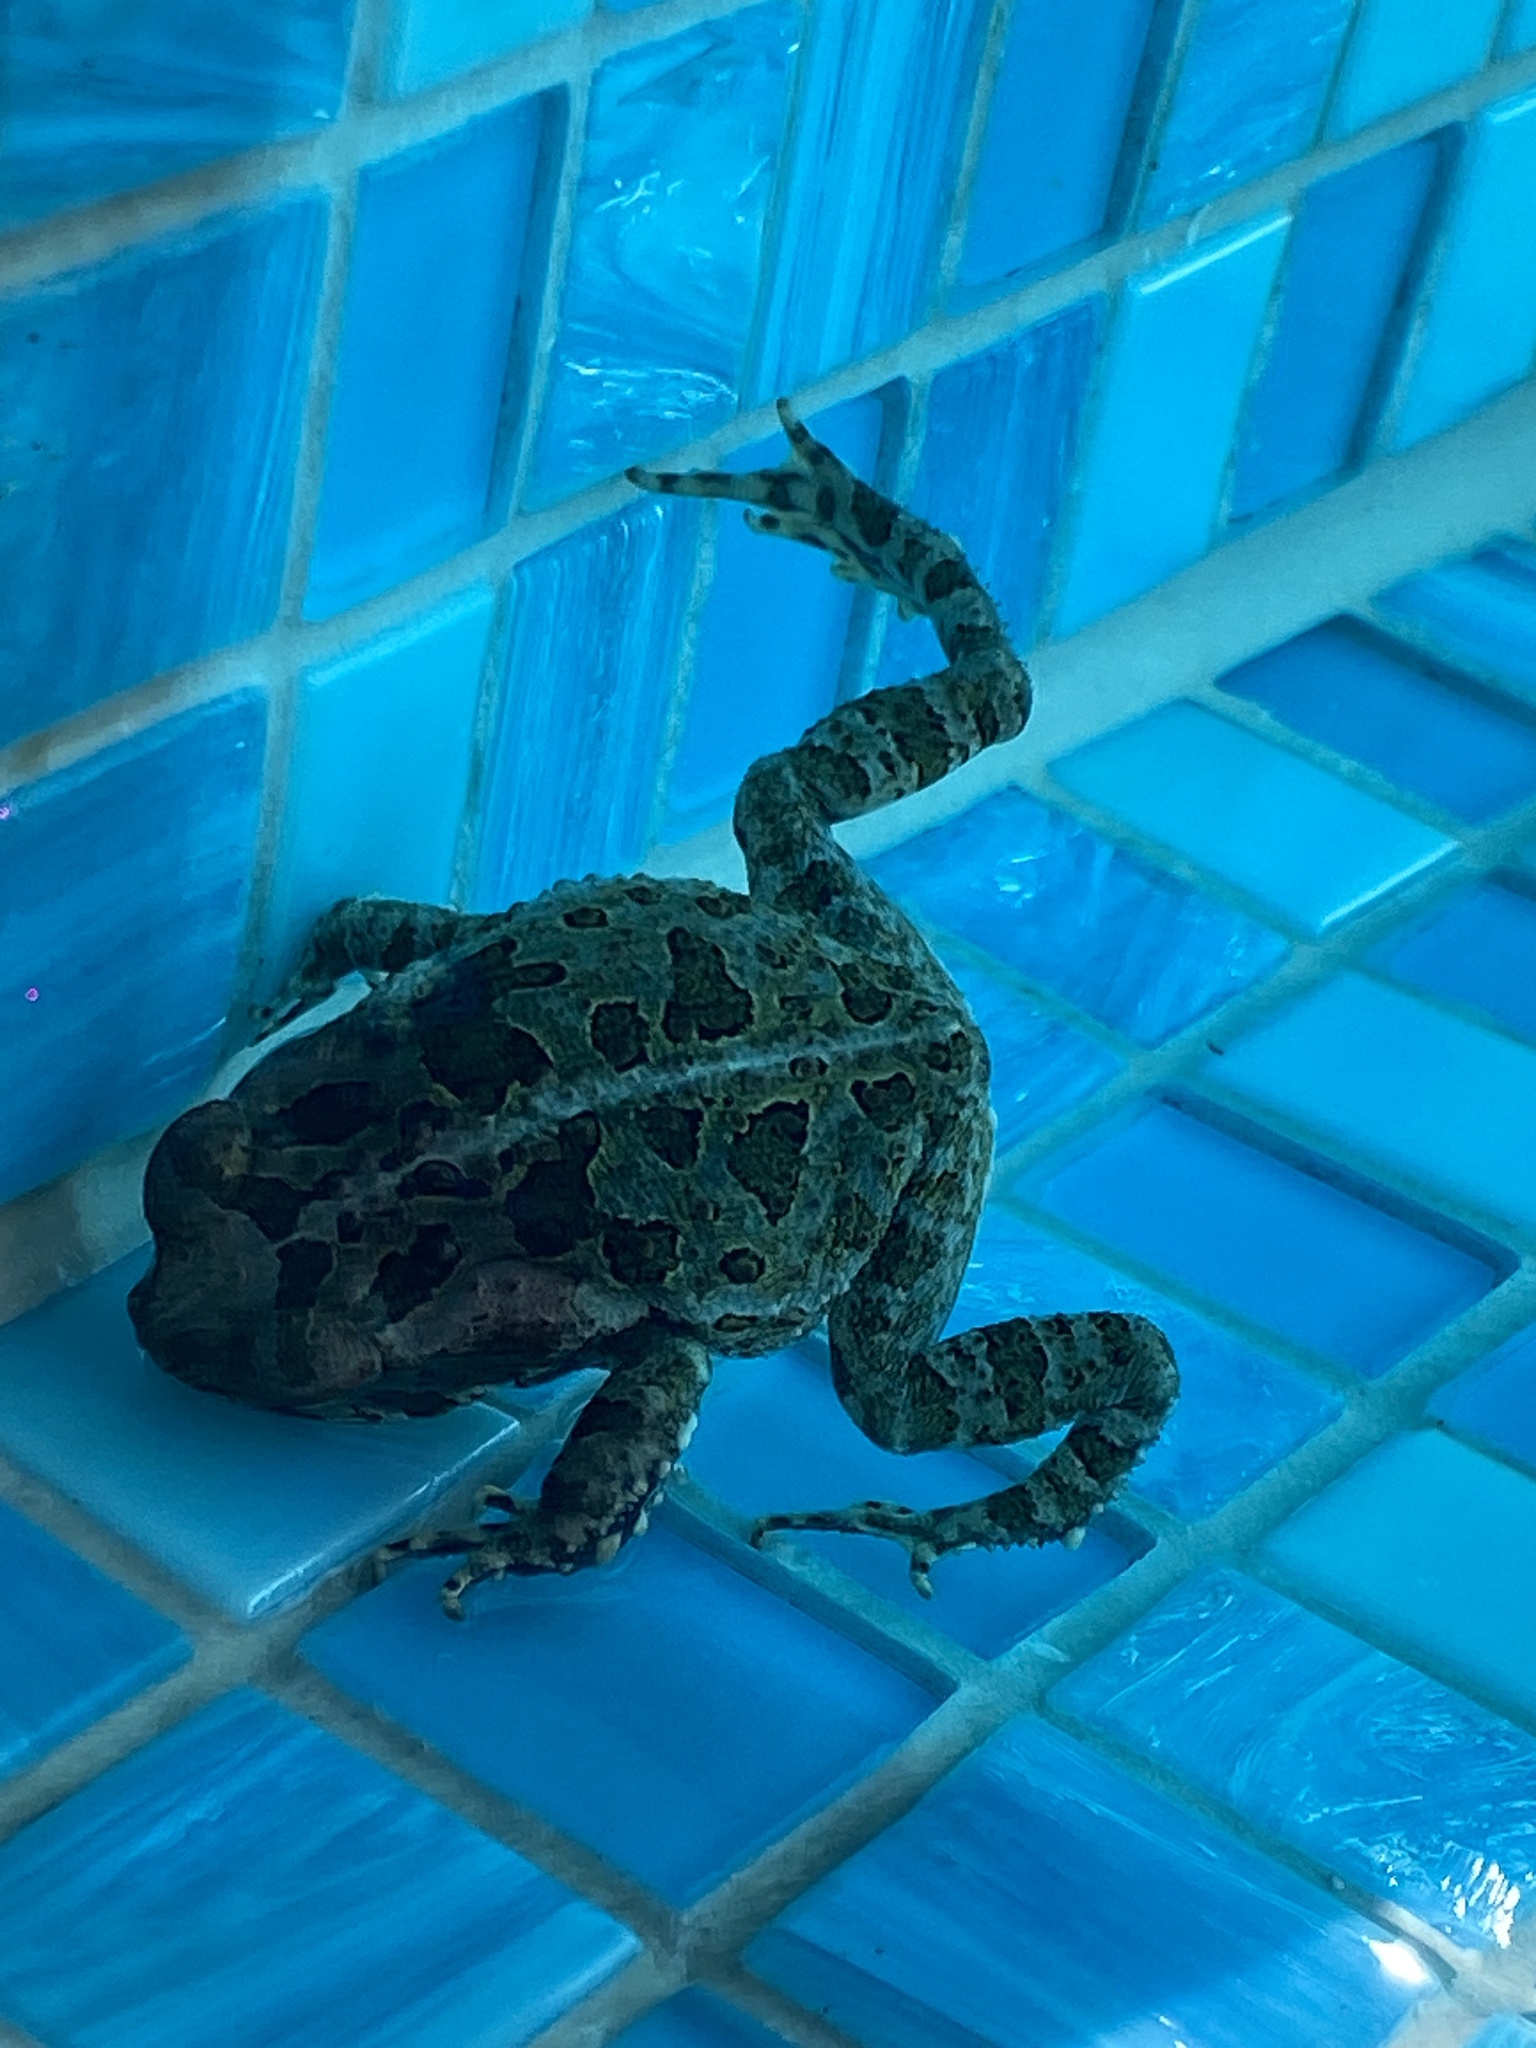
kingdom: Animalia
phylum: Chordata
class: Amphibia
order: Anura
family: Bufonidae
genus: Rhinella
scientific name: Rhinella marina
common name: Cane toad
